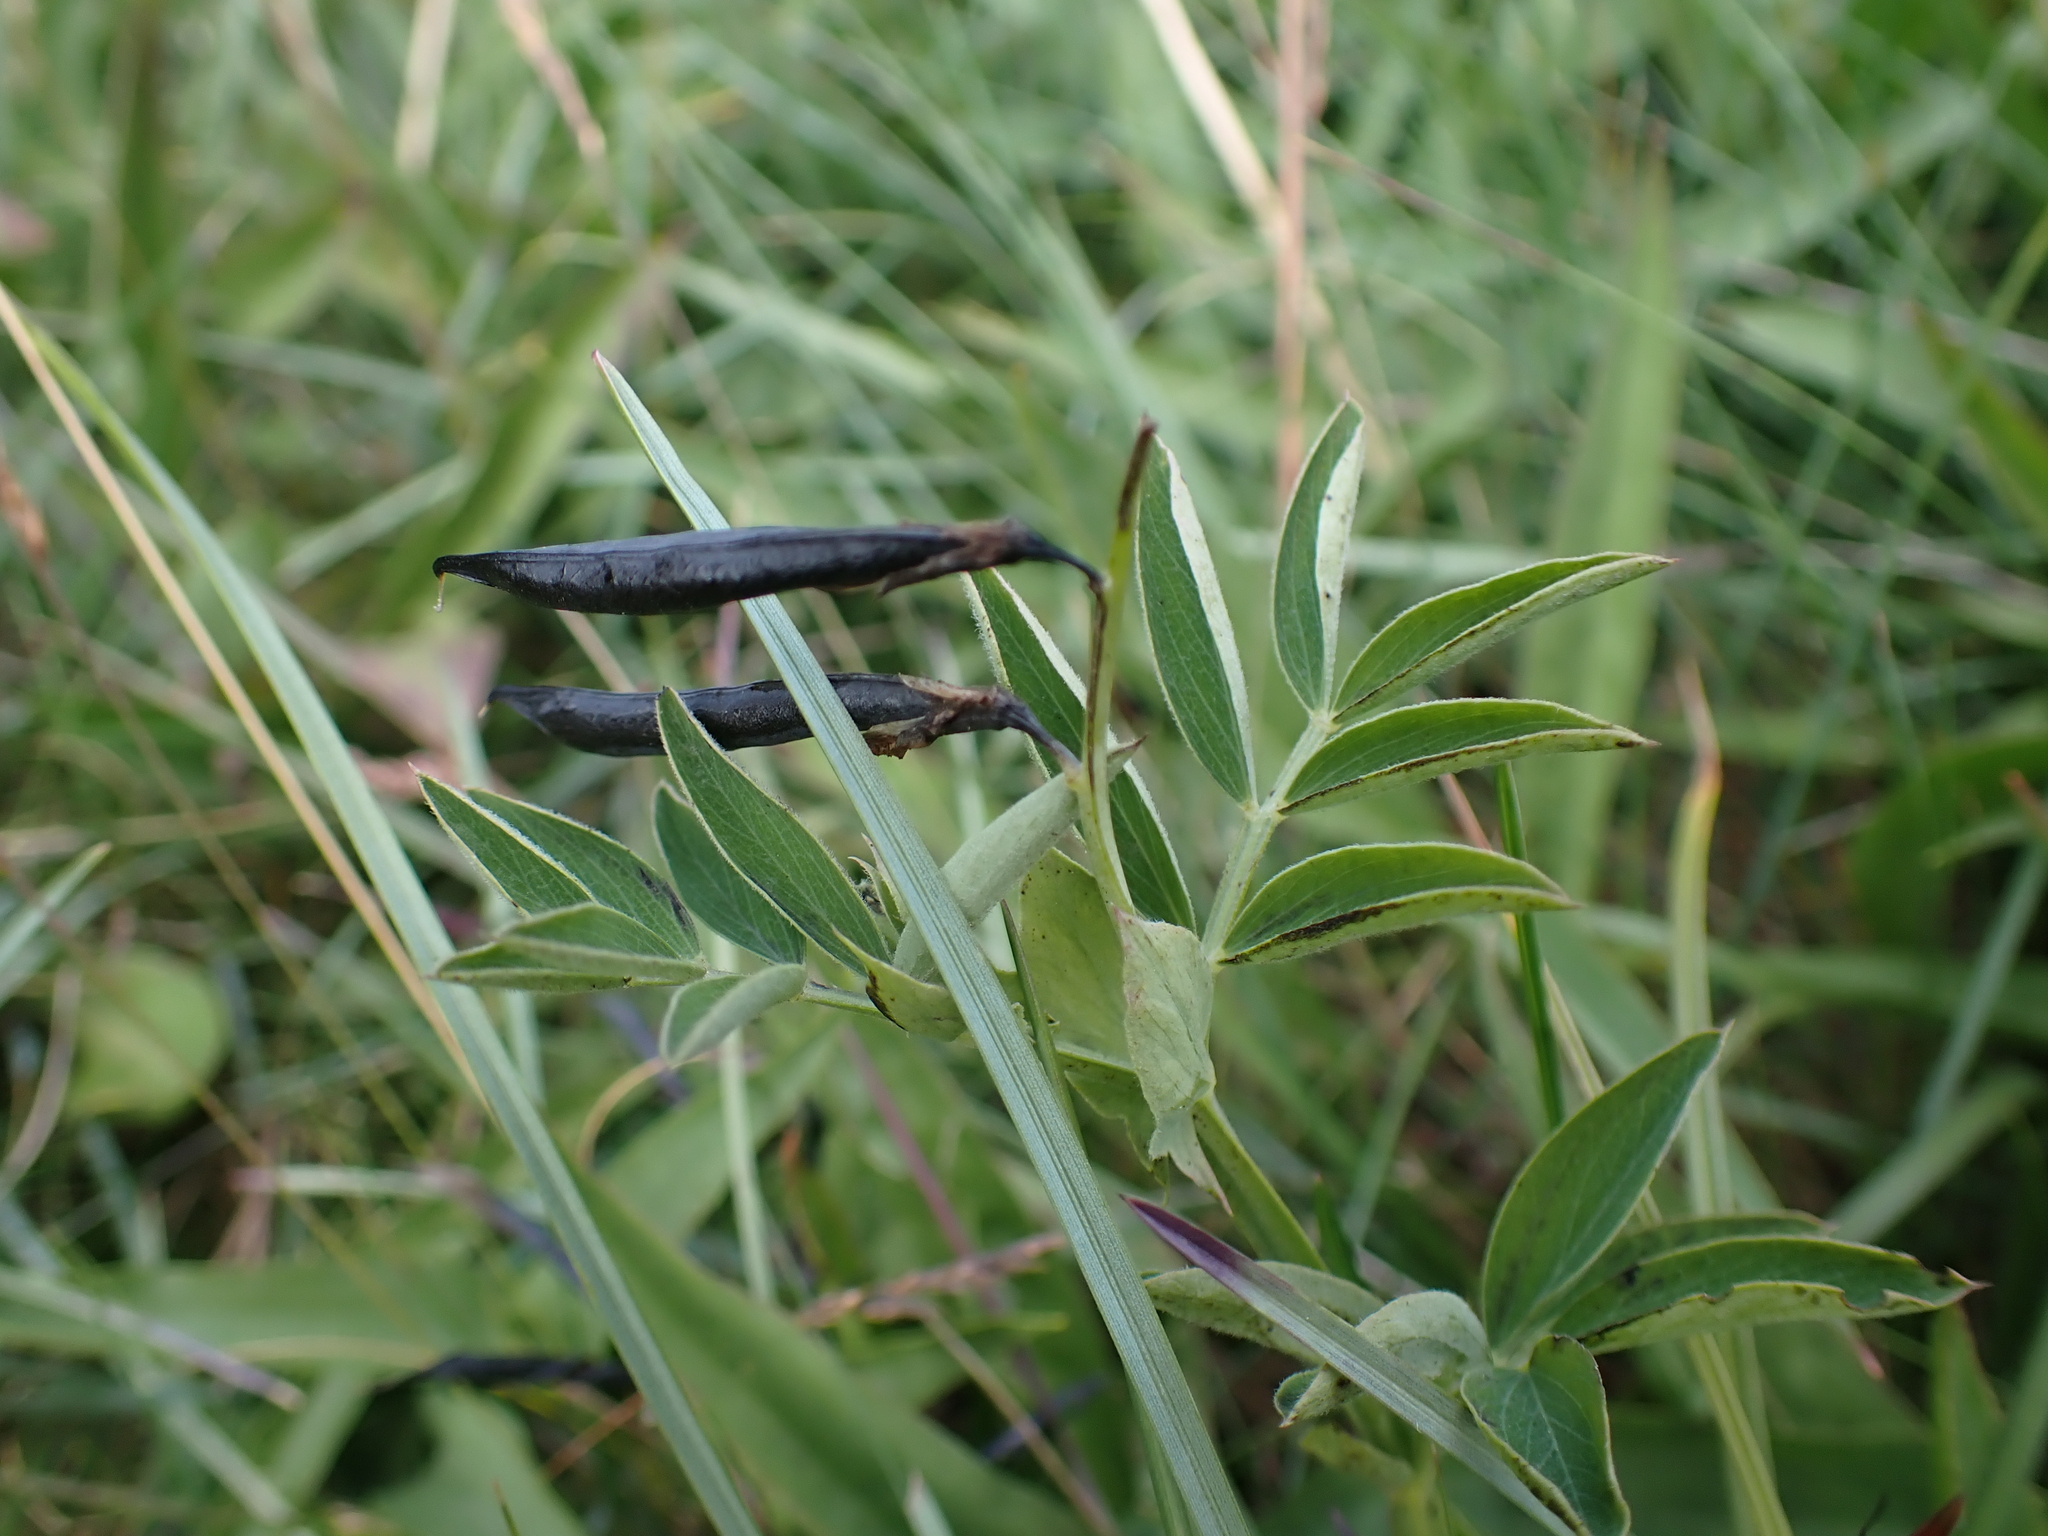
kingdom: Plantae
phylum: Tracheophyta
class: Magnoliopsida
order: Fabales
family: Fabaceae
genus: Lathyrus
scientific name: Lathyrus linifolius
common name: Bitter-vetch
